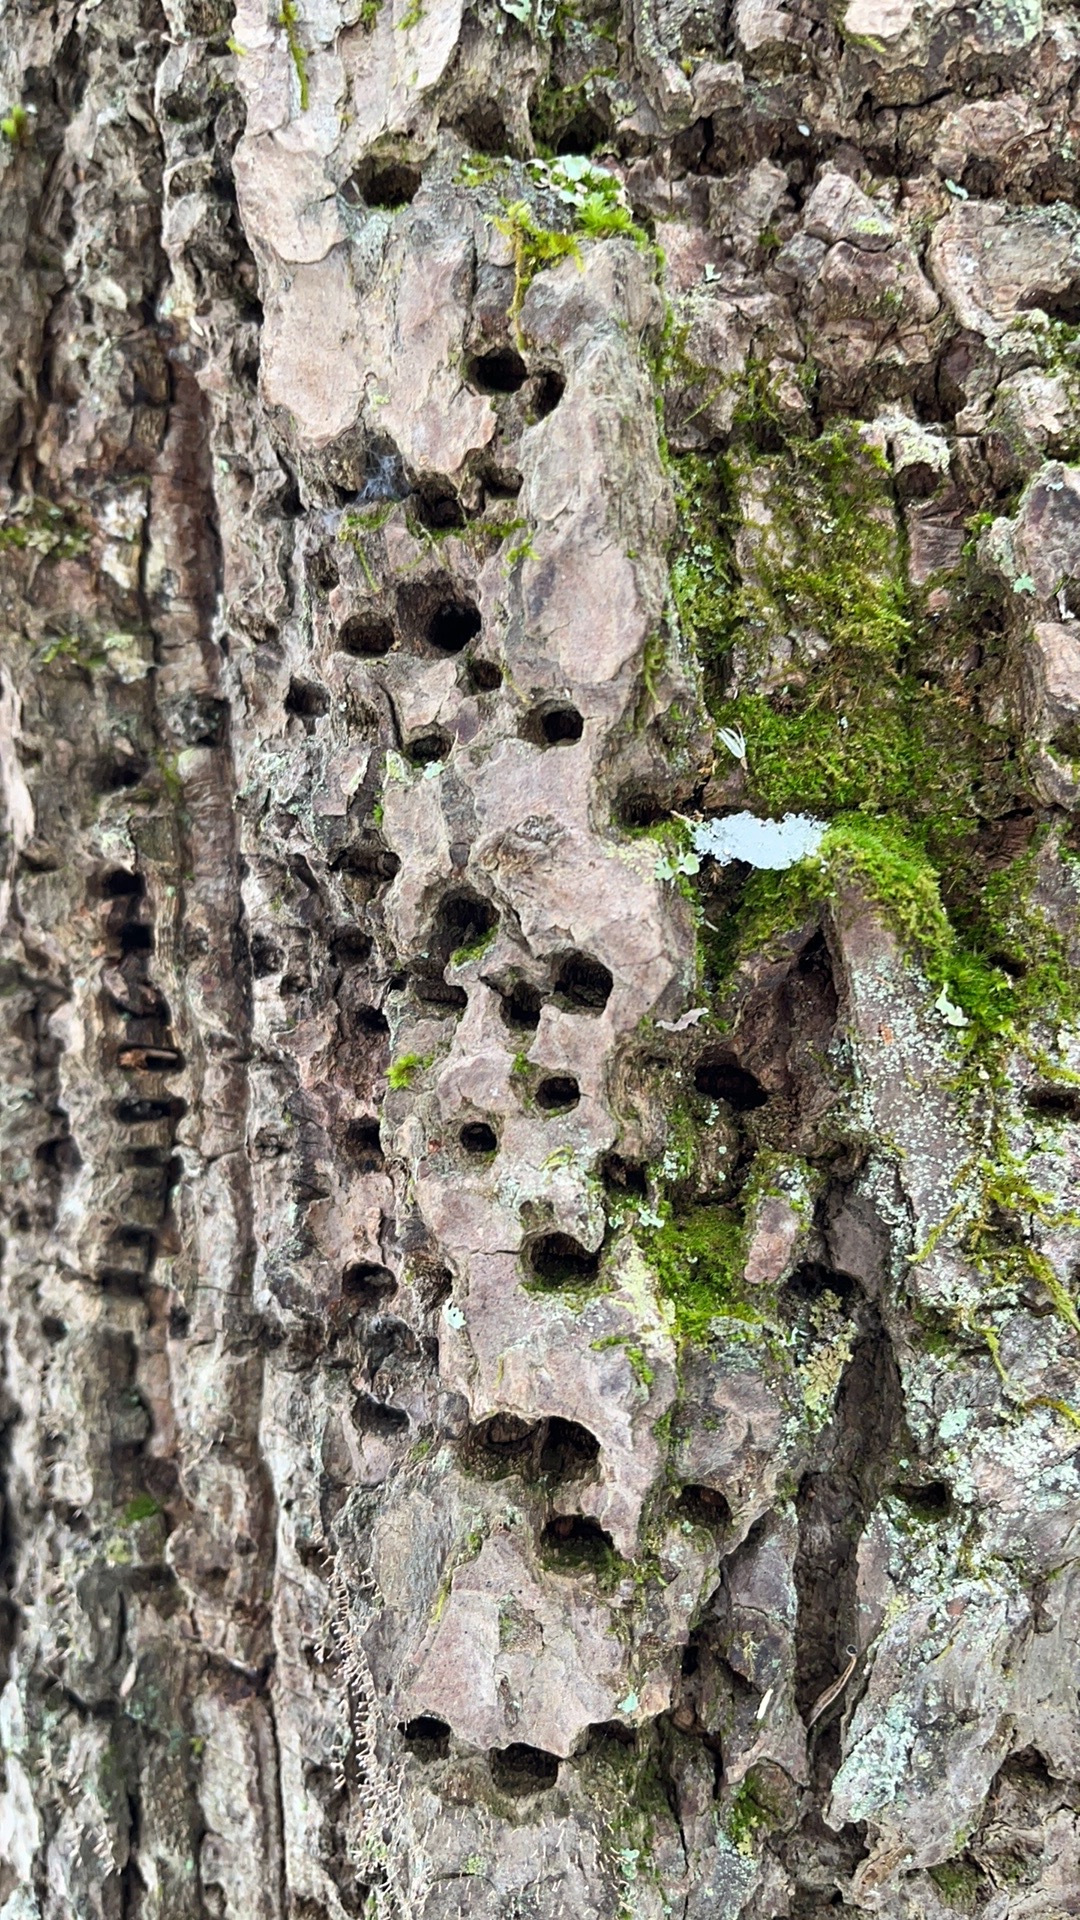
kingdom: Animalia
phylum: Chordata
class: Aves
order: Piciformes
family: Picidae
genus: Sphyrapicus
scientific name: Sphyrapicus varius
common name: Yellow-bellied sapsucker
